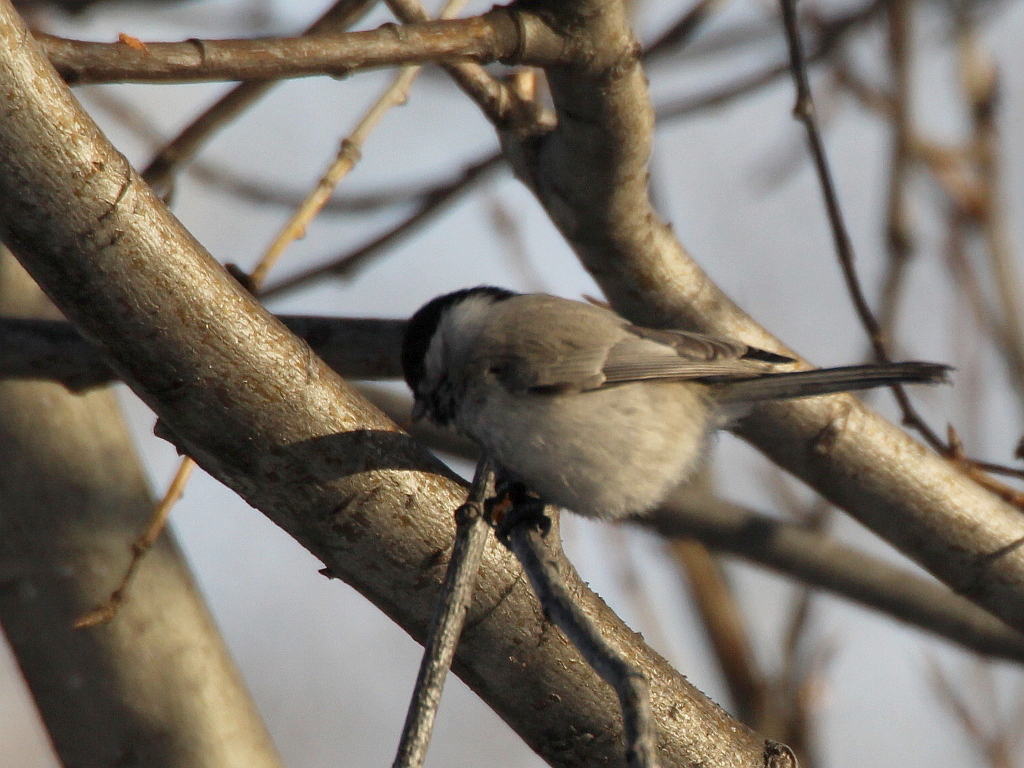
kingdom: Animalia
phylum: Chordata
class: Aves
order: Passeriformes
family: Paridae
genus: Poecile
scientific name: Poecile palustris
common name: Marsh tit
